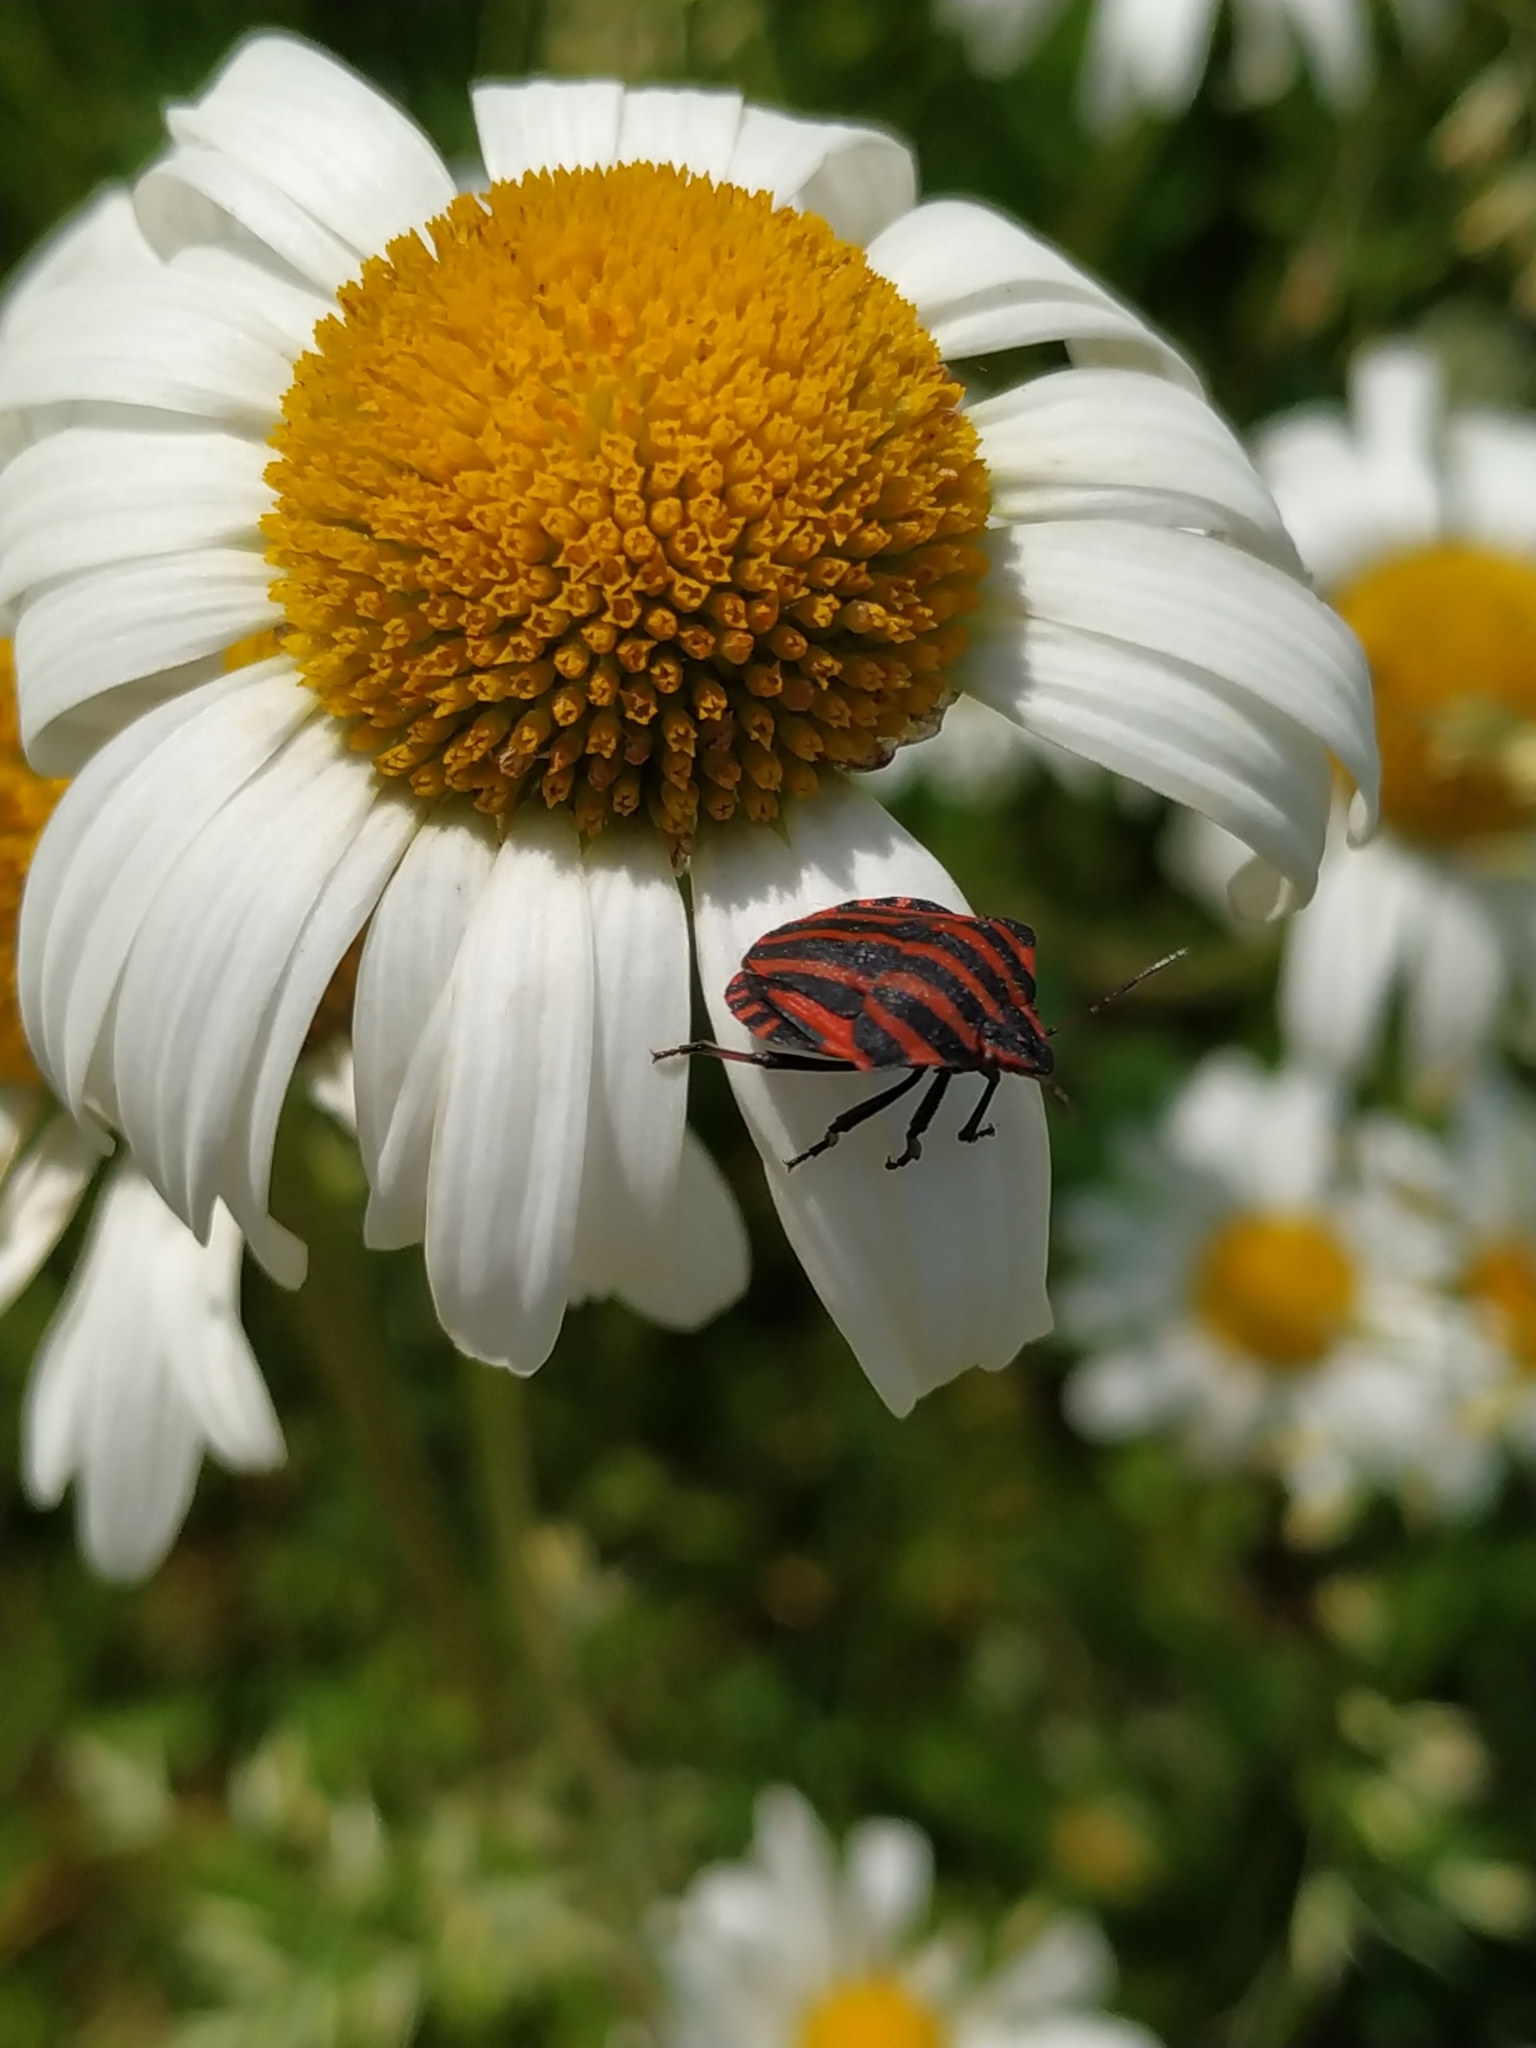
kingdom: Animalia
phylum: Arthropoda
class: Insecta
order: Hemiptera
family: Pentatomidae
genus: Graphosoma
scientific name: Graphosoma italicum
